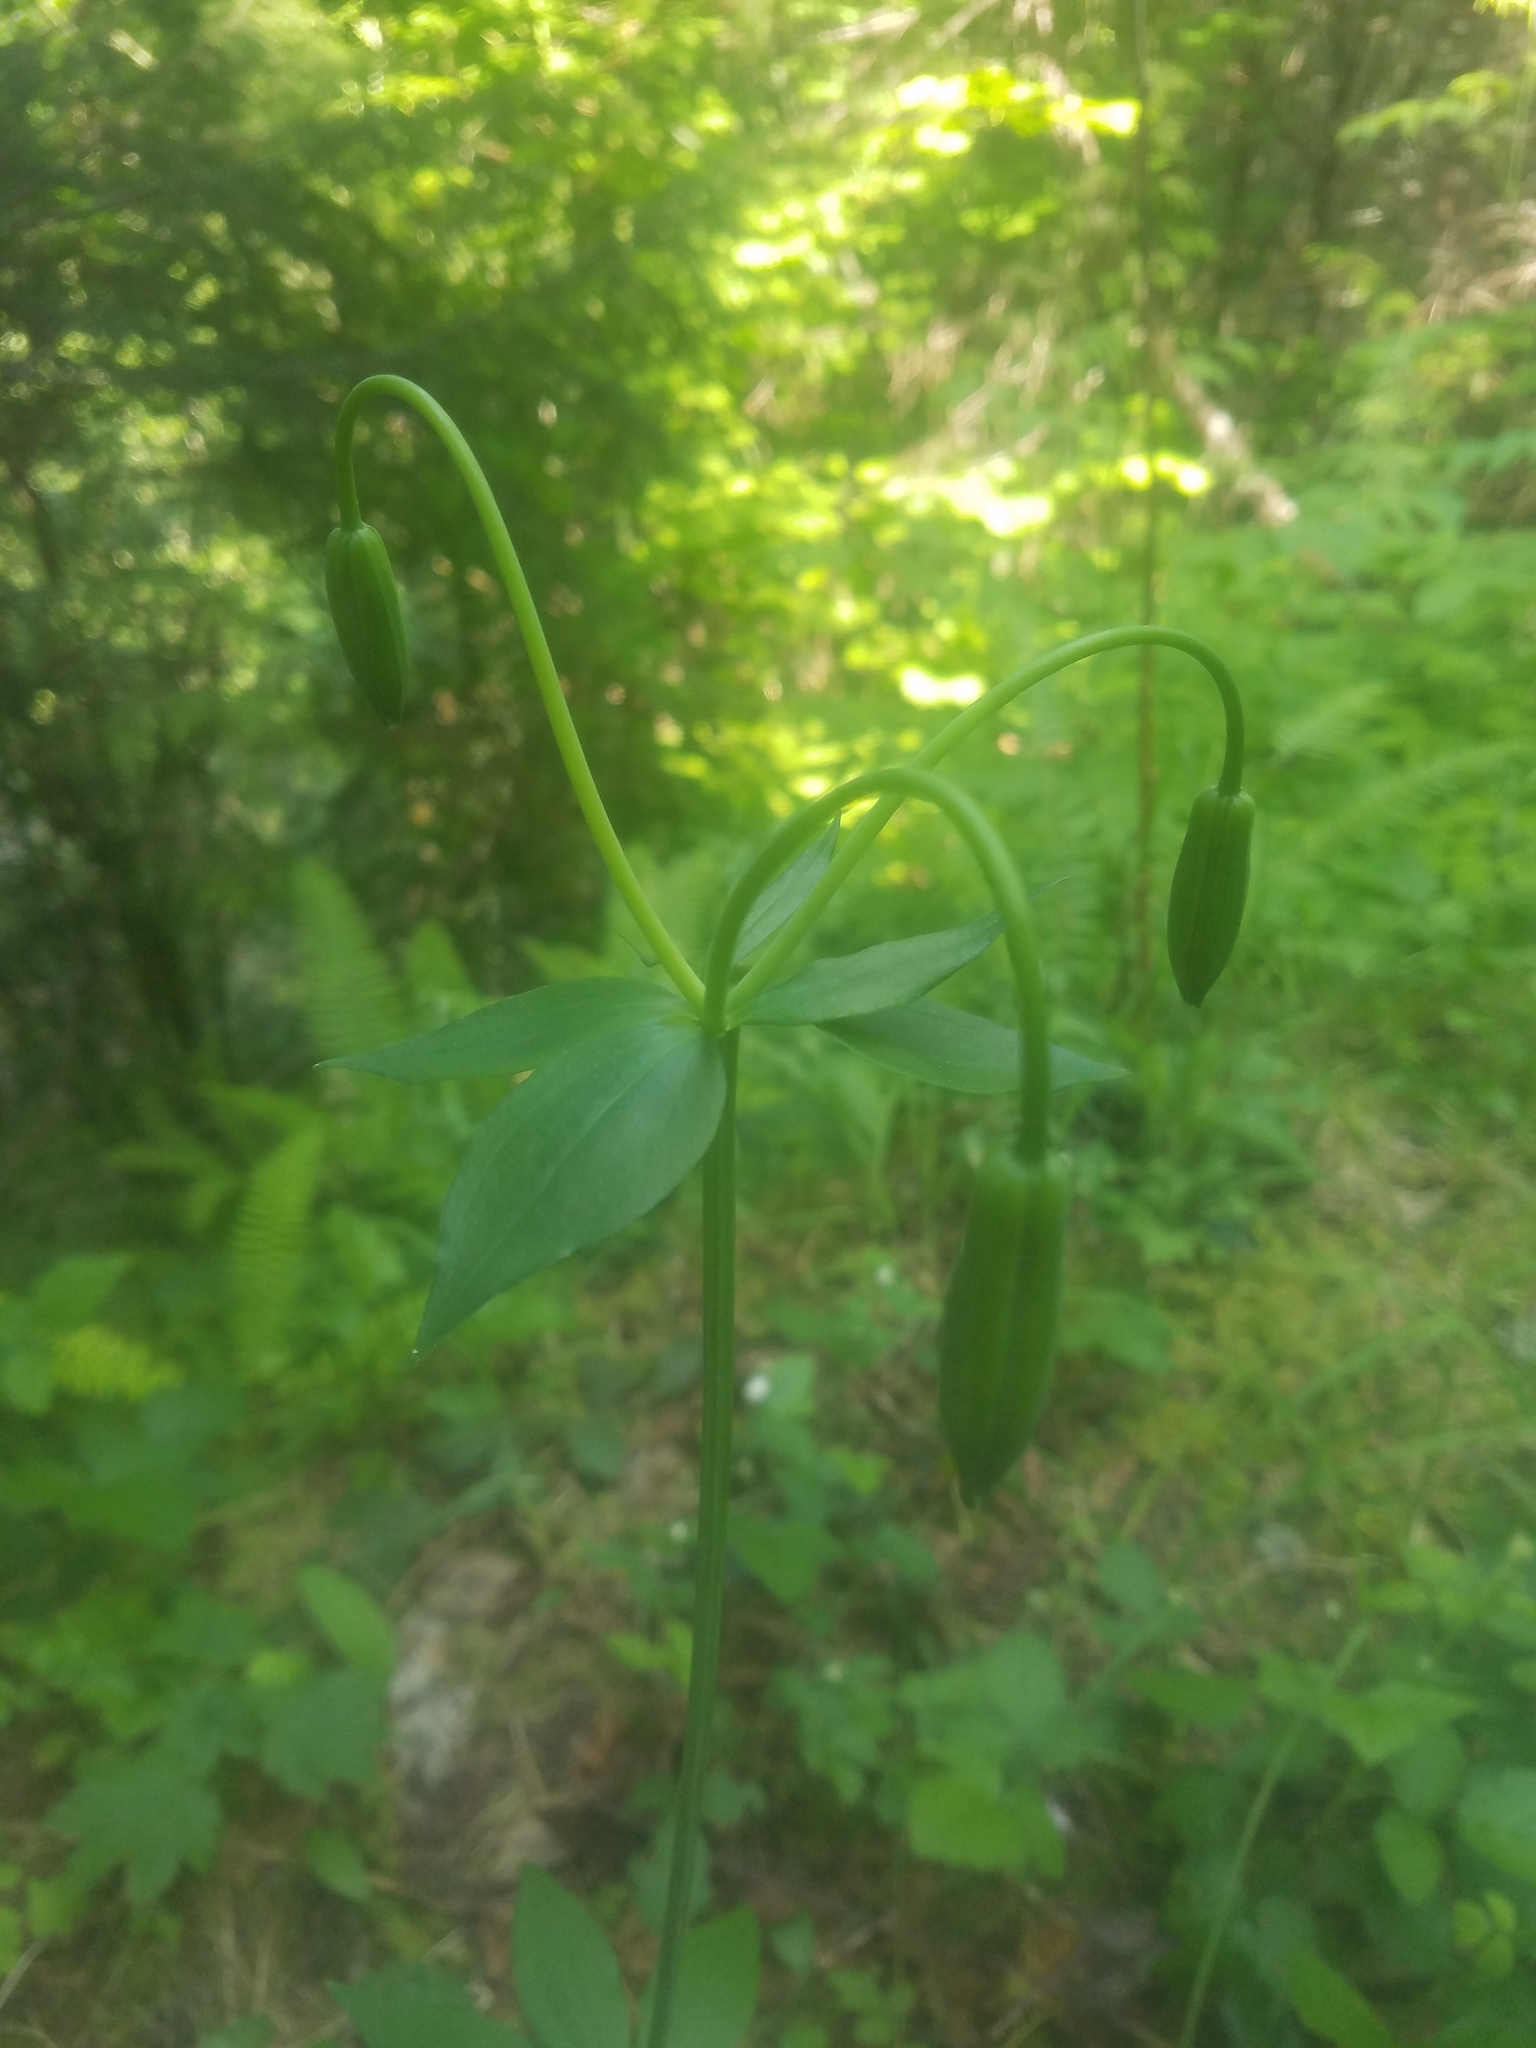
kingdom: Plantae
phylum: Tracheophyta
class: Liliopsida
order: Liliales
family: Liliaceae
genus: Lilium
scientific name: Lilium columbianum
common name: Columbia lily
